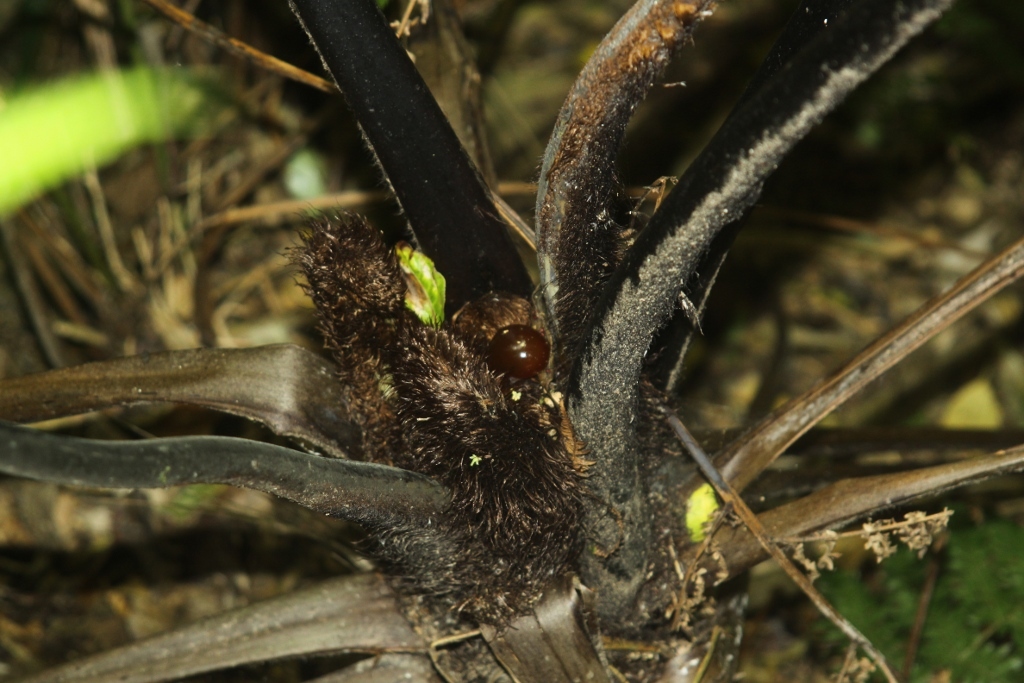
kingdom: Plantae
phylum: Tracheophyta
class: Polypodiopsida
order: Cyatheales
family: Cyatheaceae
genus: Sphaeropteris
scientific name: Sphaeropteris medullaris
